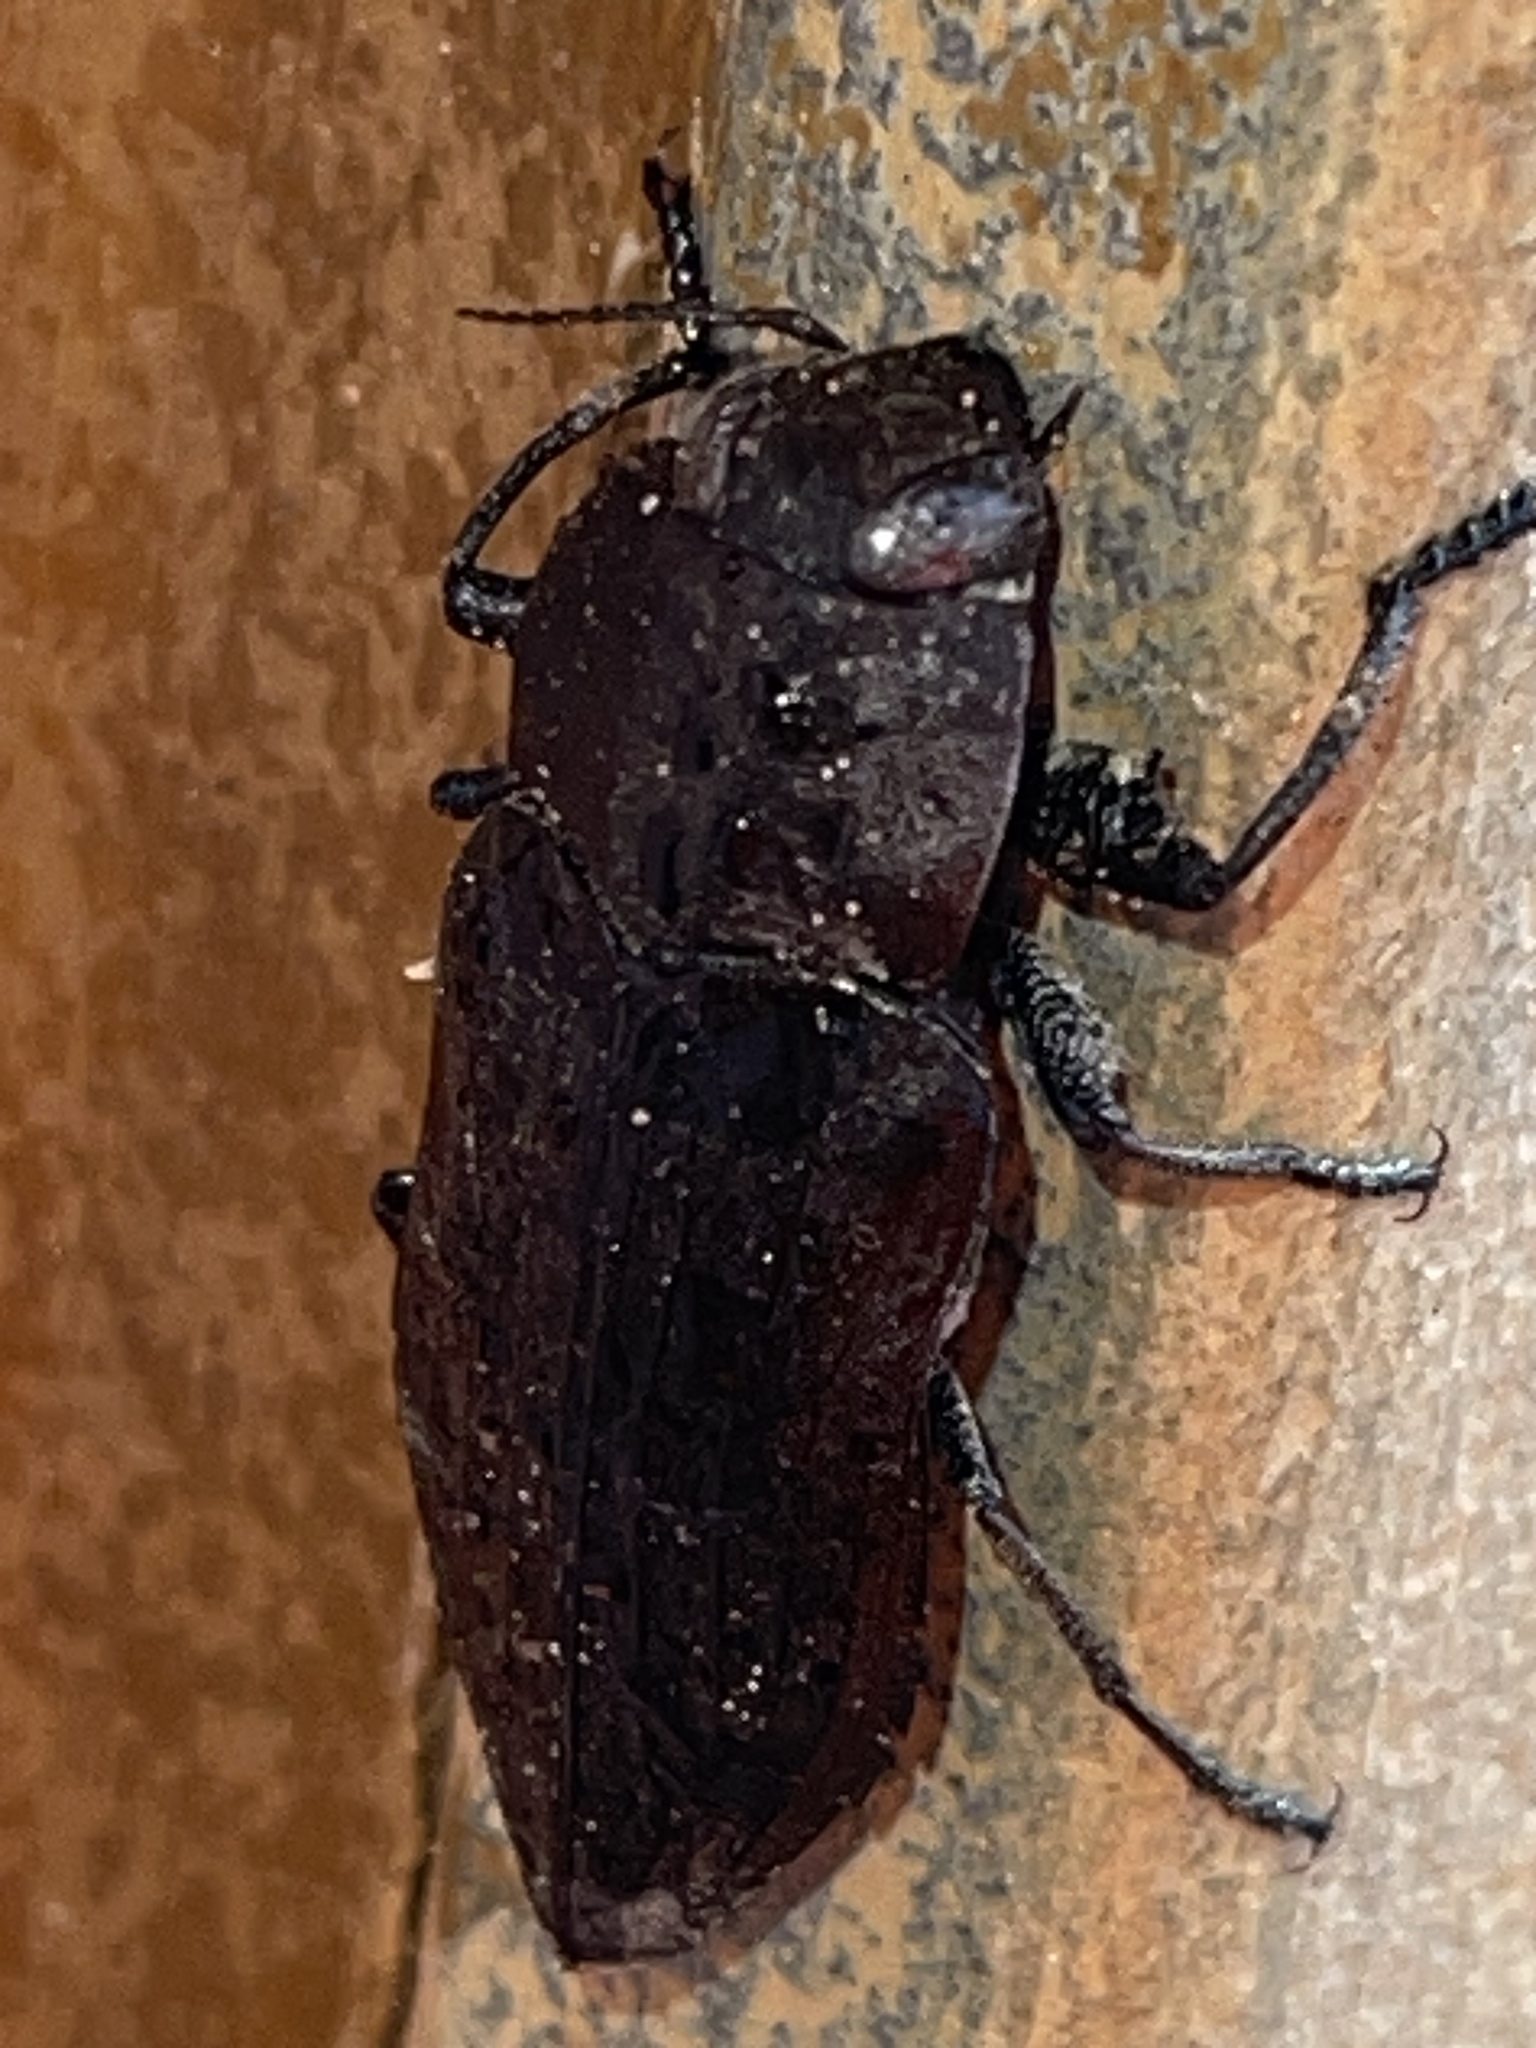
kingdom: Animalia
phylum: Arthropoda
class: Insecta
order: Coleoptera
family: Buprestidae
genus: Merimna
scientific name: Merimna atrata
